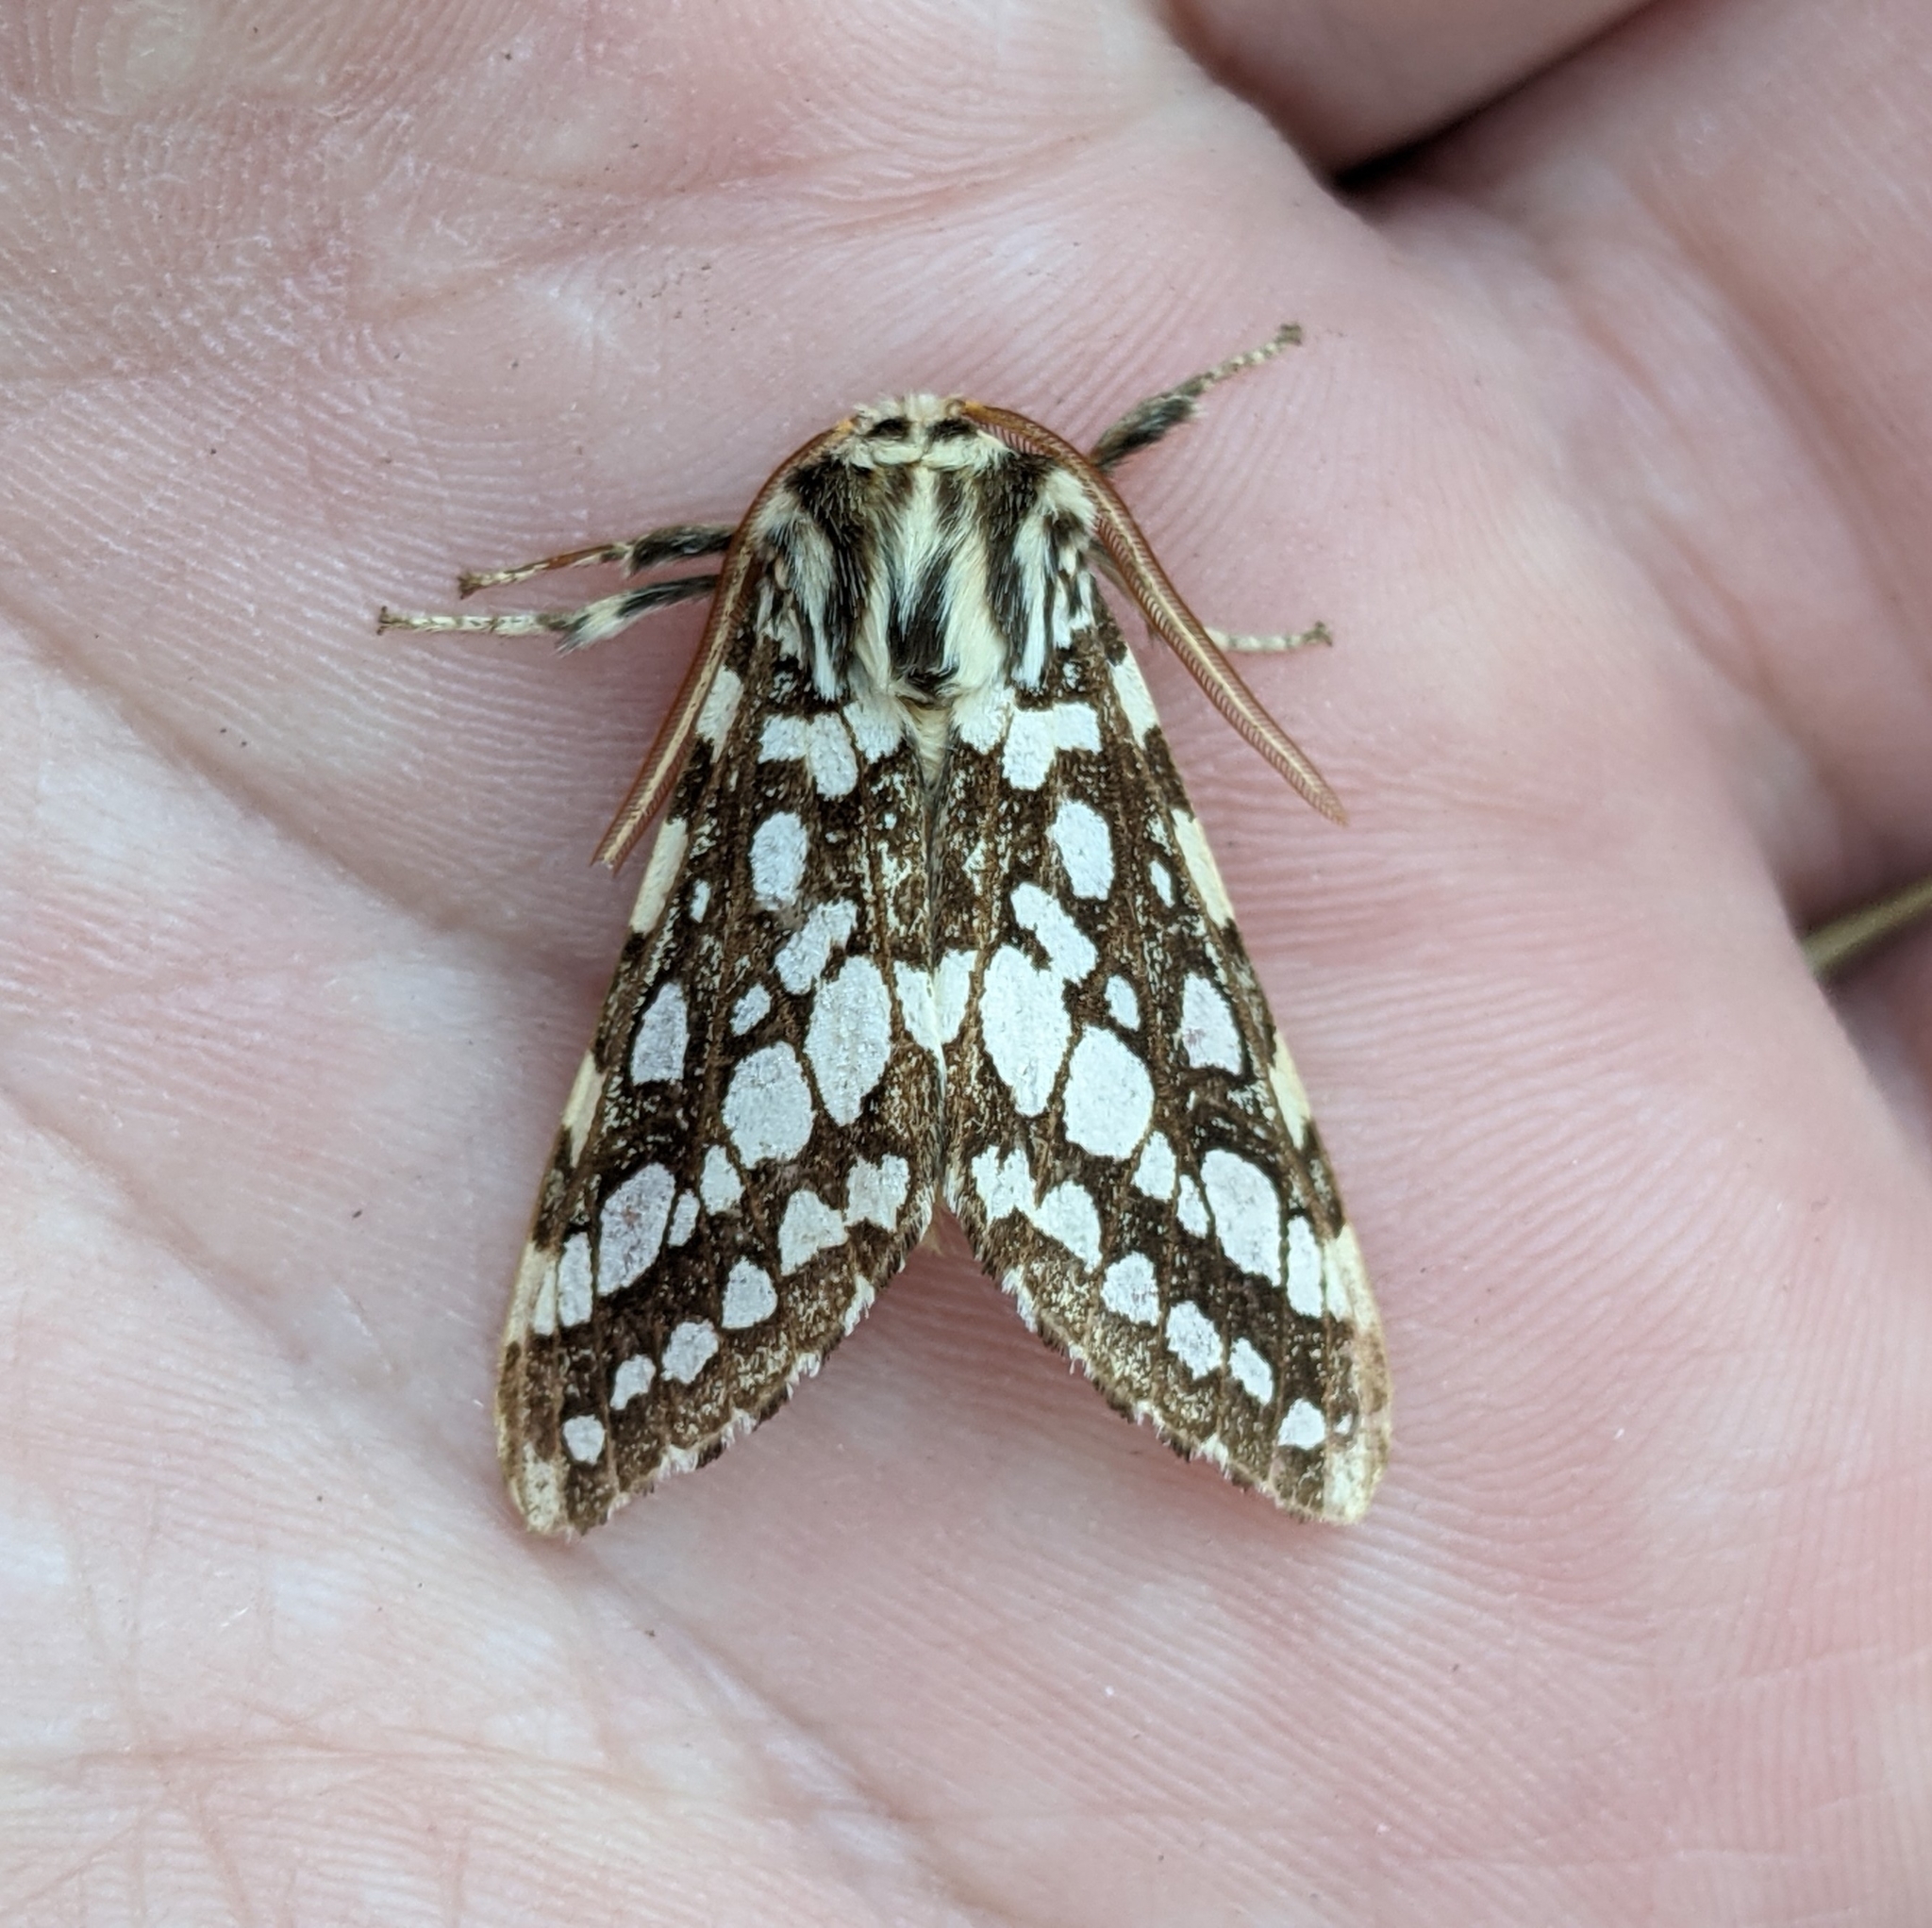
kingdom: Animalia
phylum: Arthropoda
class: Insecta
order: Lepidoptera
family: Erebidae
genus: Lophocampa
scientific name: Lophocampa argentata
